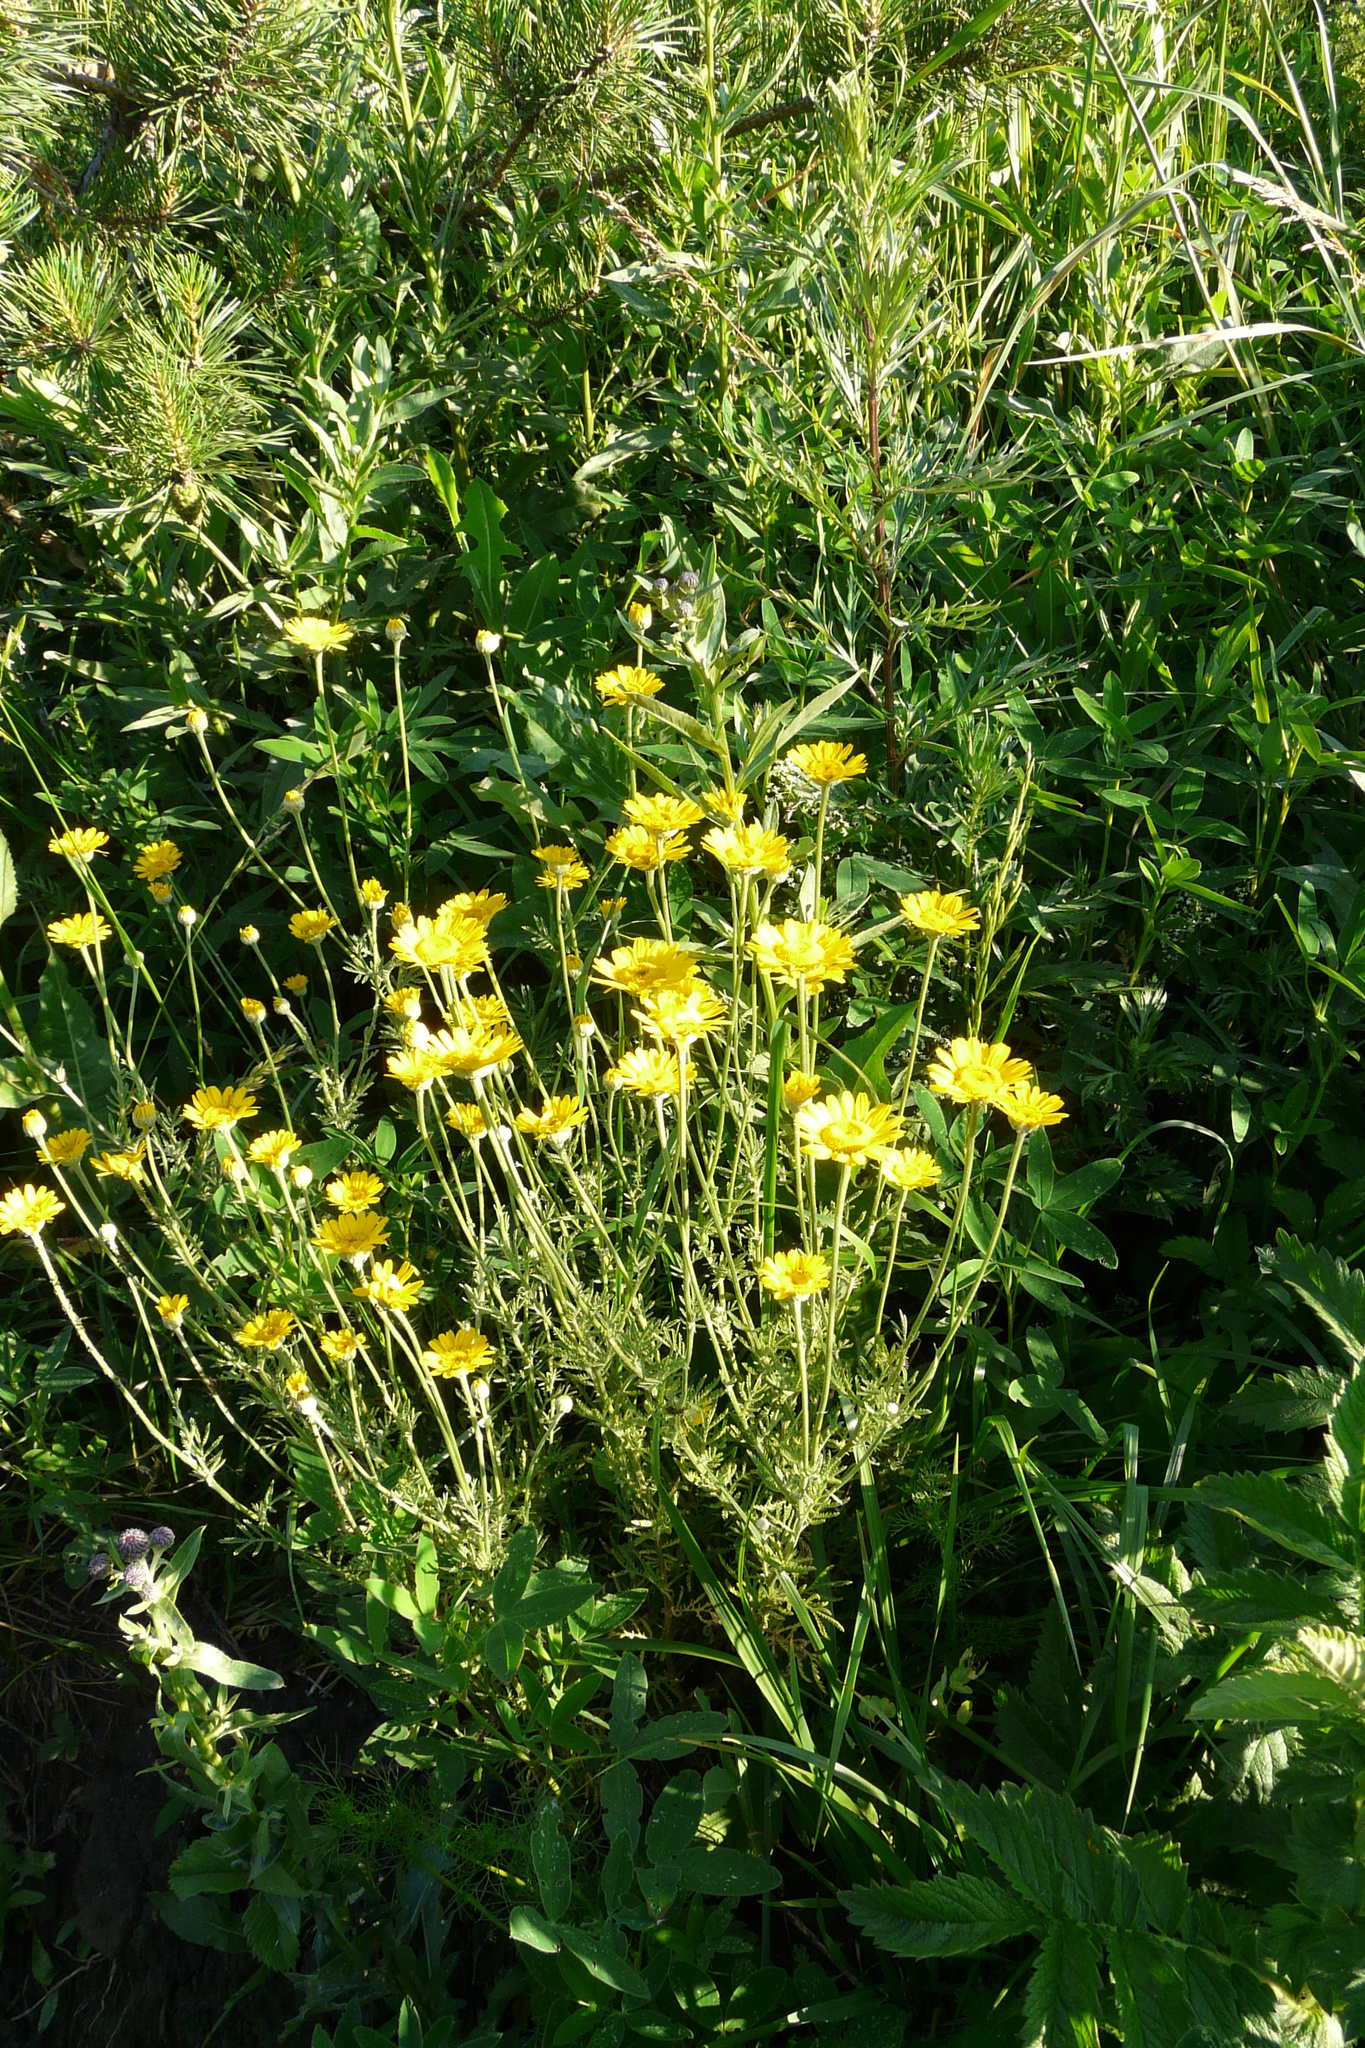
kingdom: Plantae
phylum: Tracheophyta
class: Magnoliopsida
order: Asterales
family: Asteraceae
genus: Cota
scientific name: Cota tinctoria
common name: Golden chamomile
